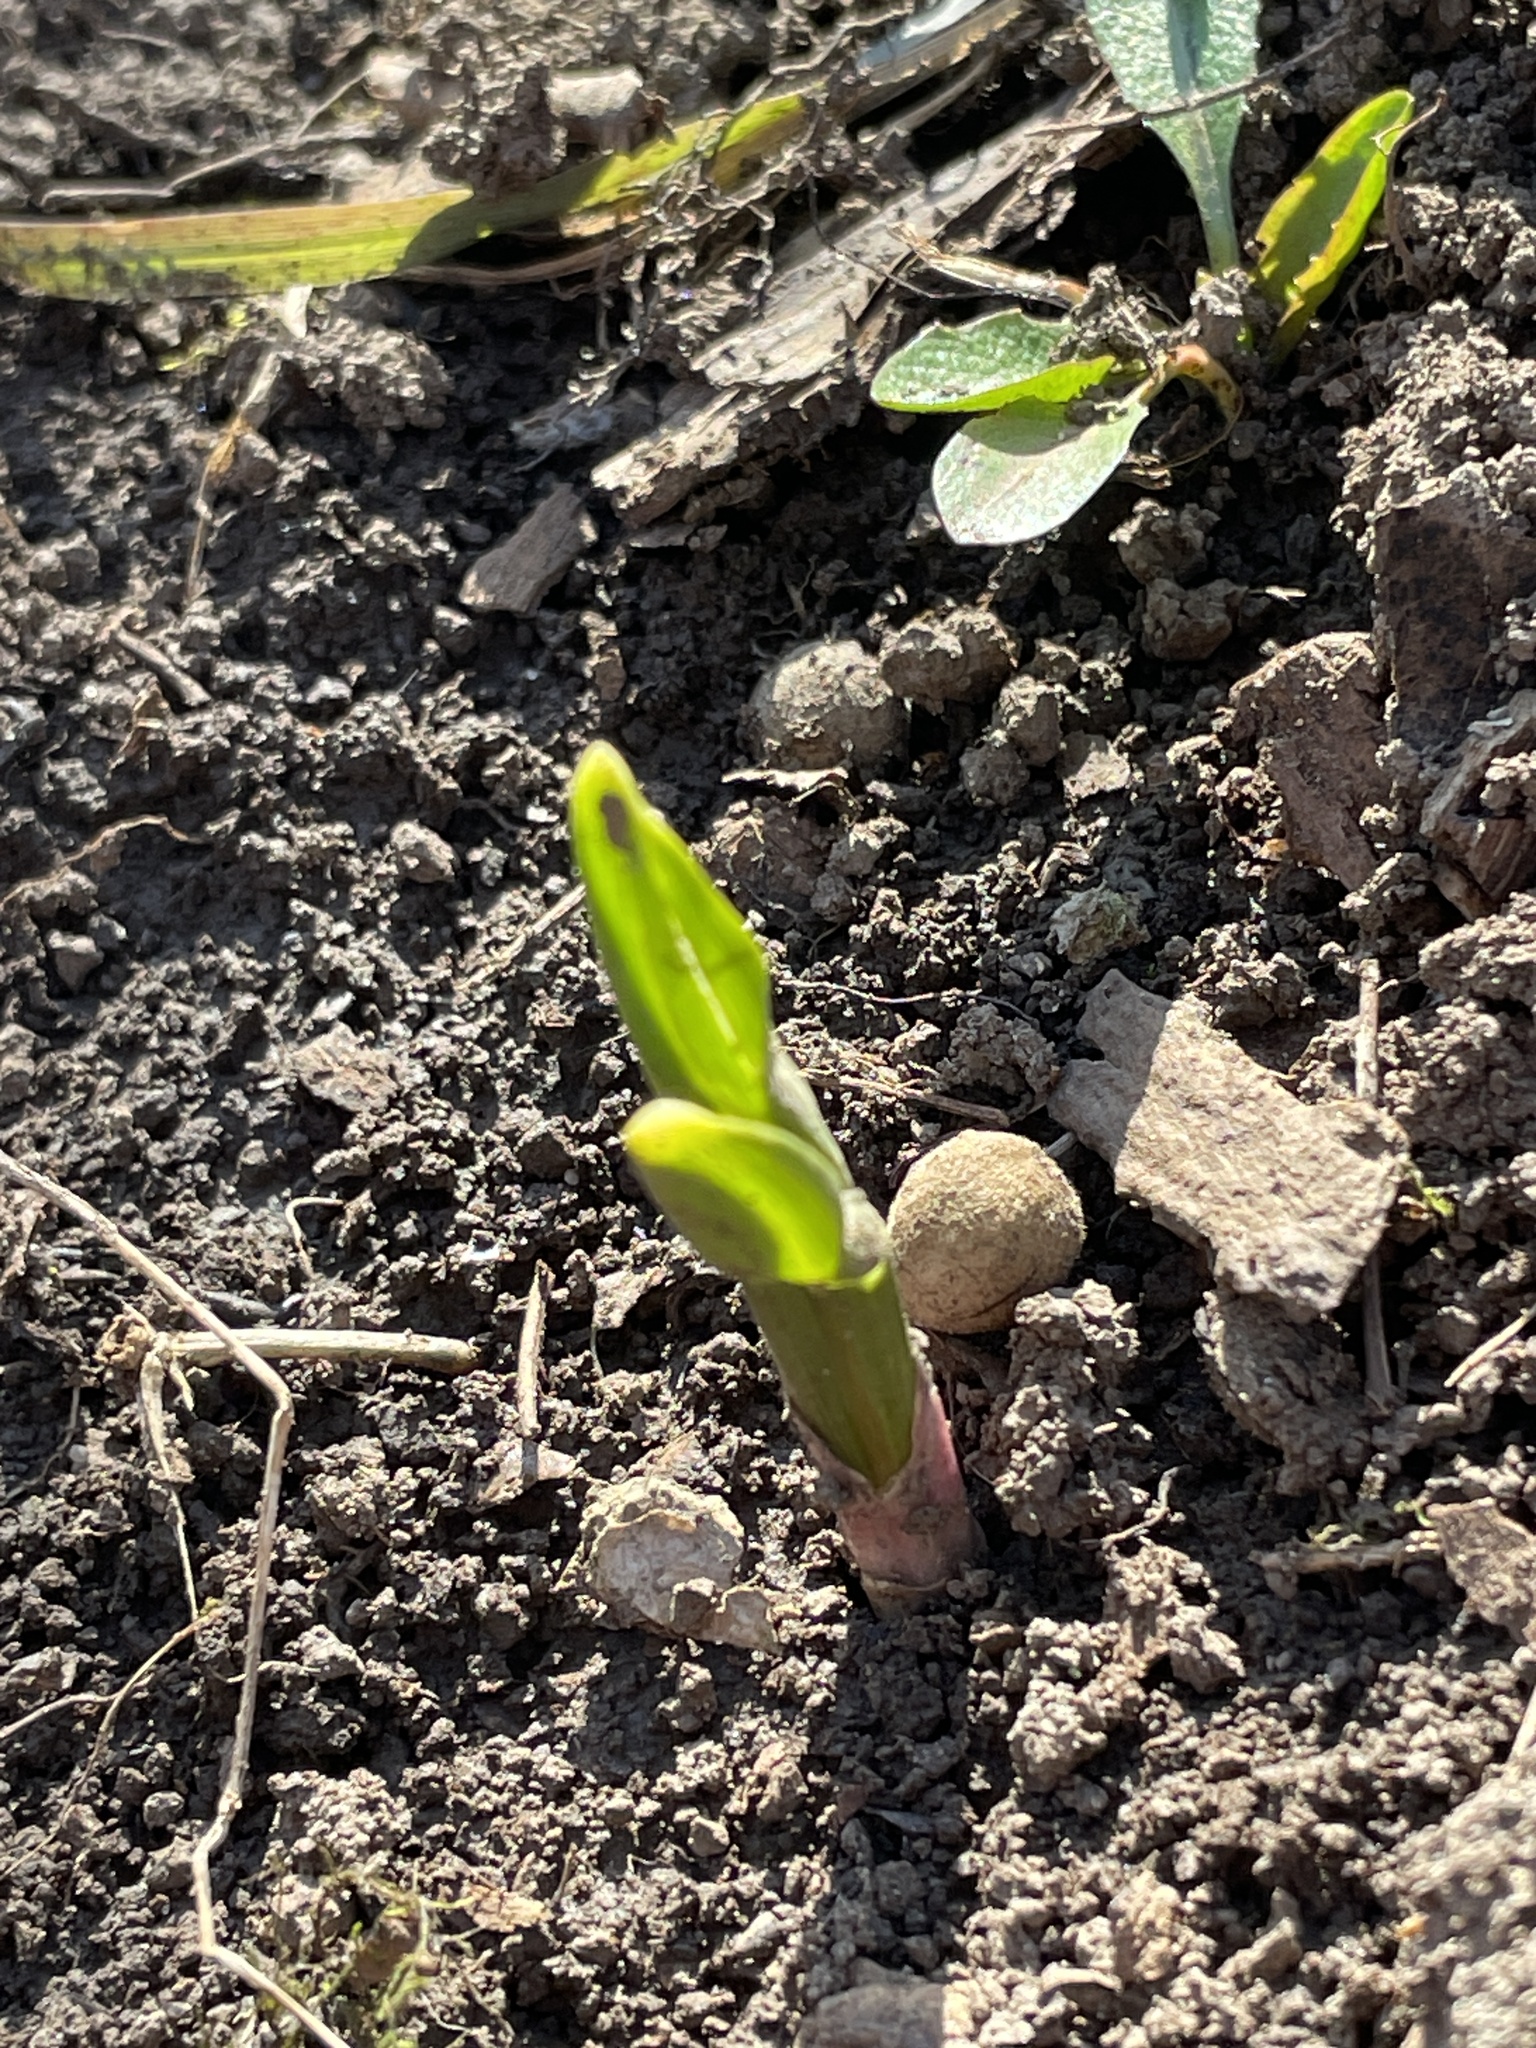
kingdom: Plantae
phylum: Tracheophyta
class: Liliopsida
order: Asparagales
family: Amaryllidaceae
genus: Allium
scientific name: Allium tricoccum
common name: Ramp
